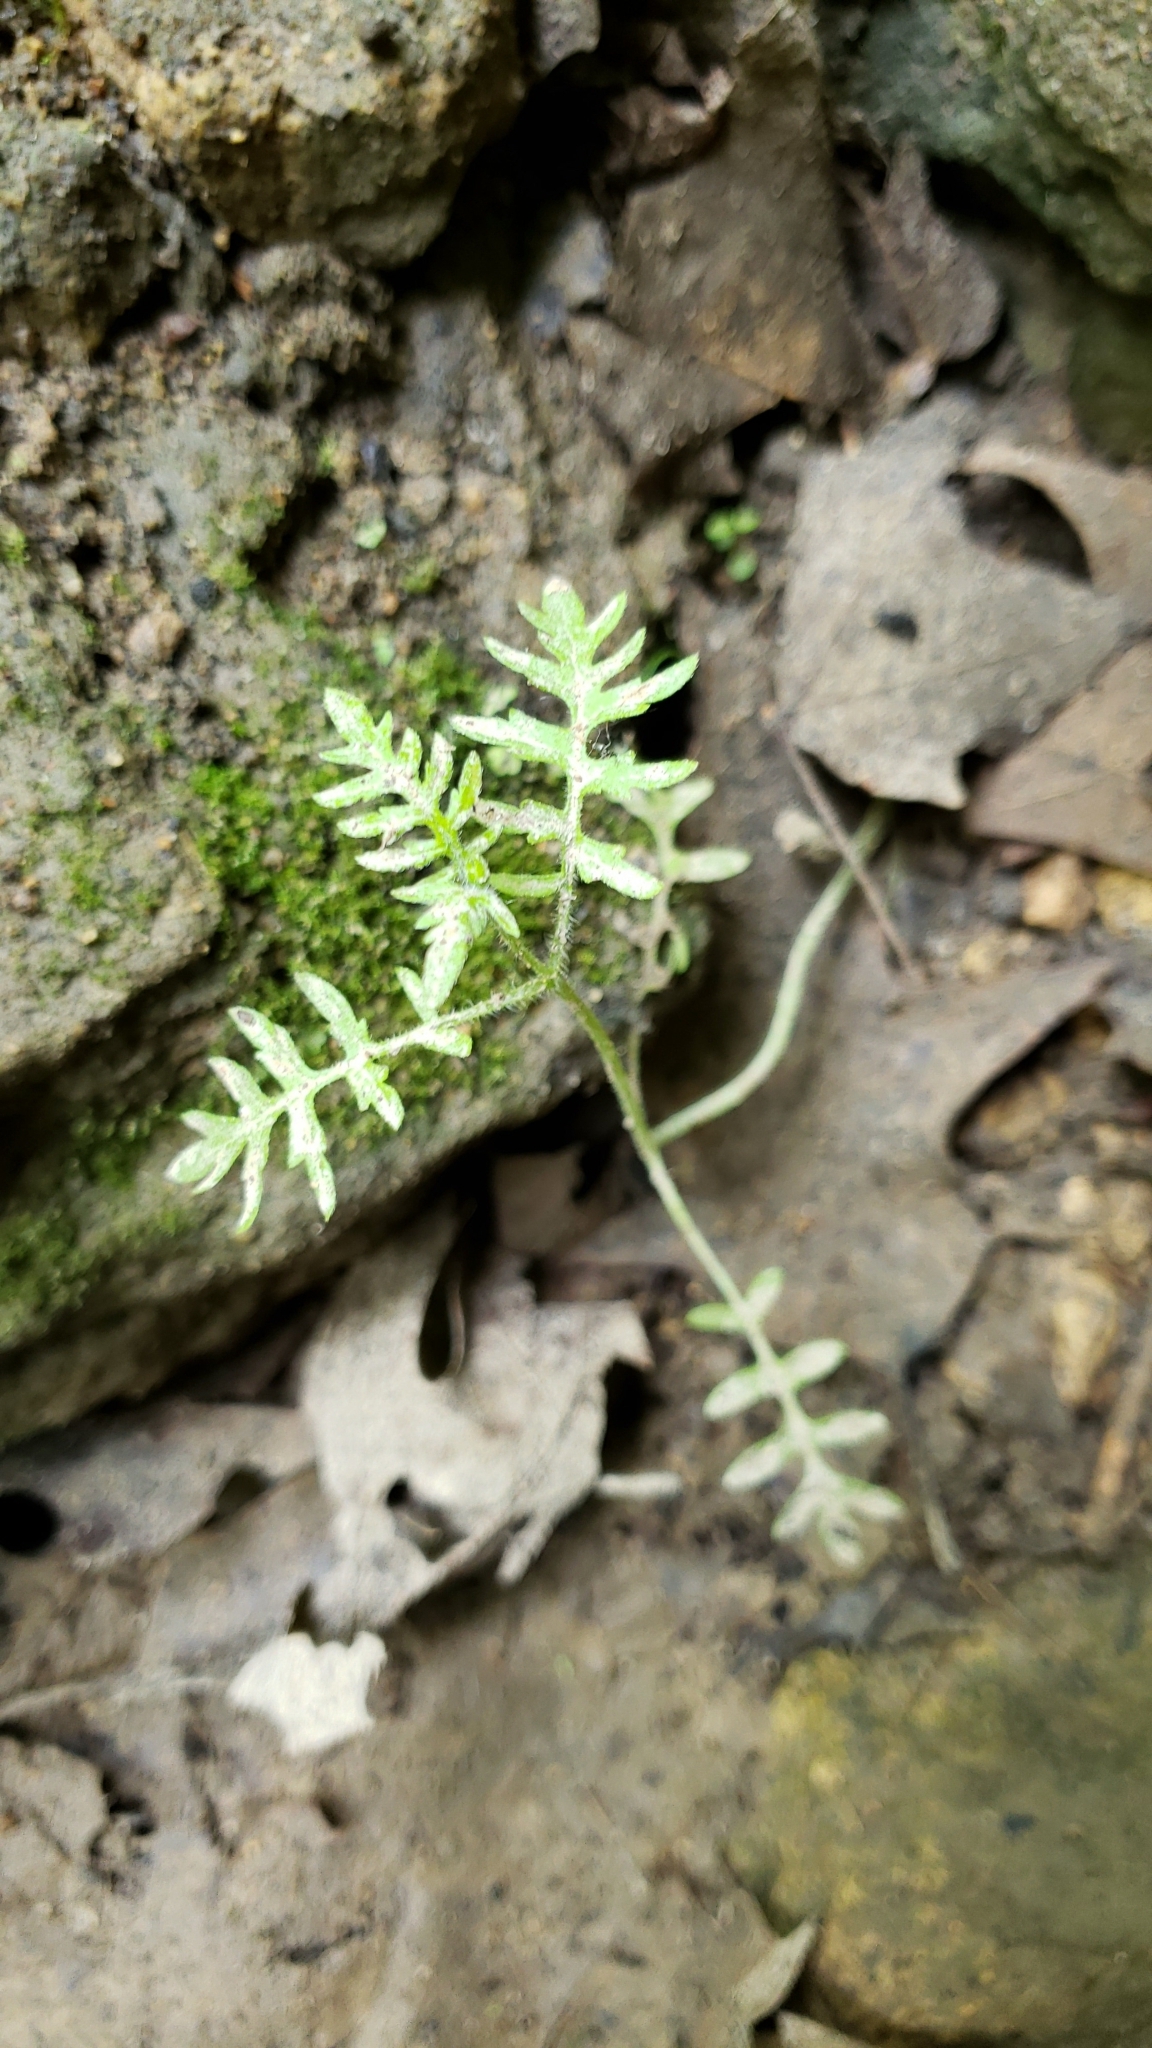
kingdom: Plantae
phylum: Tracheophyta
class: Magnoliopsida
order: Boraginales
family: Hydrophyllaceae
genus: Ellisia
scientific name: Ellisia nyctelea
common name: Aunt lucy
